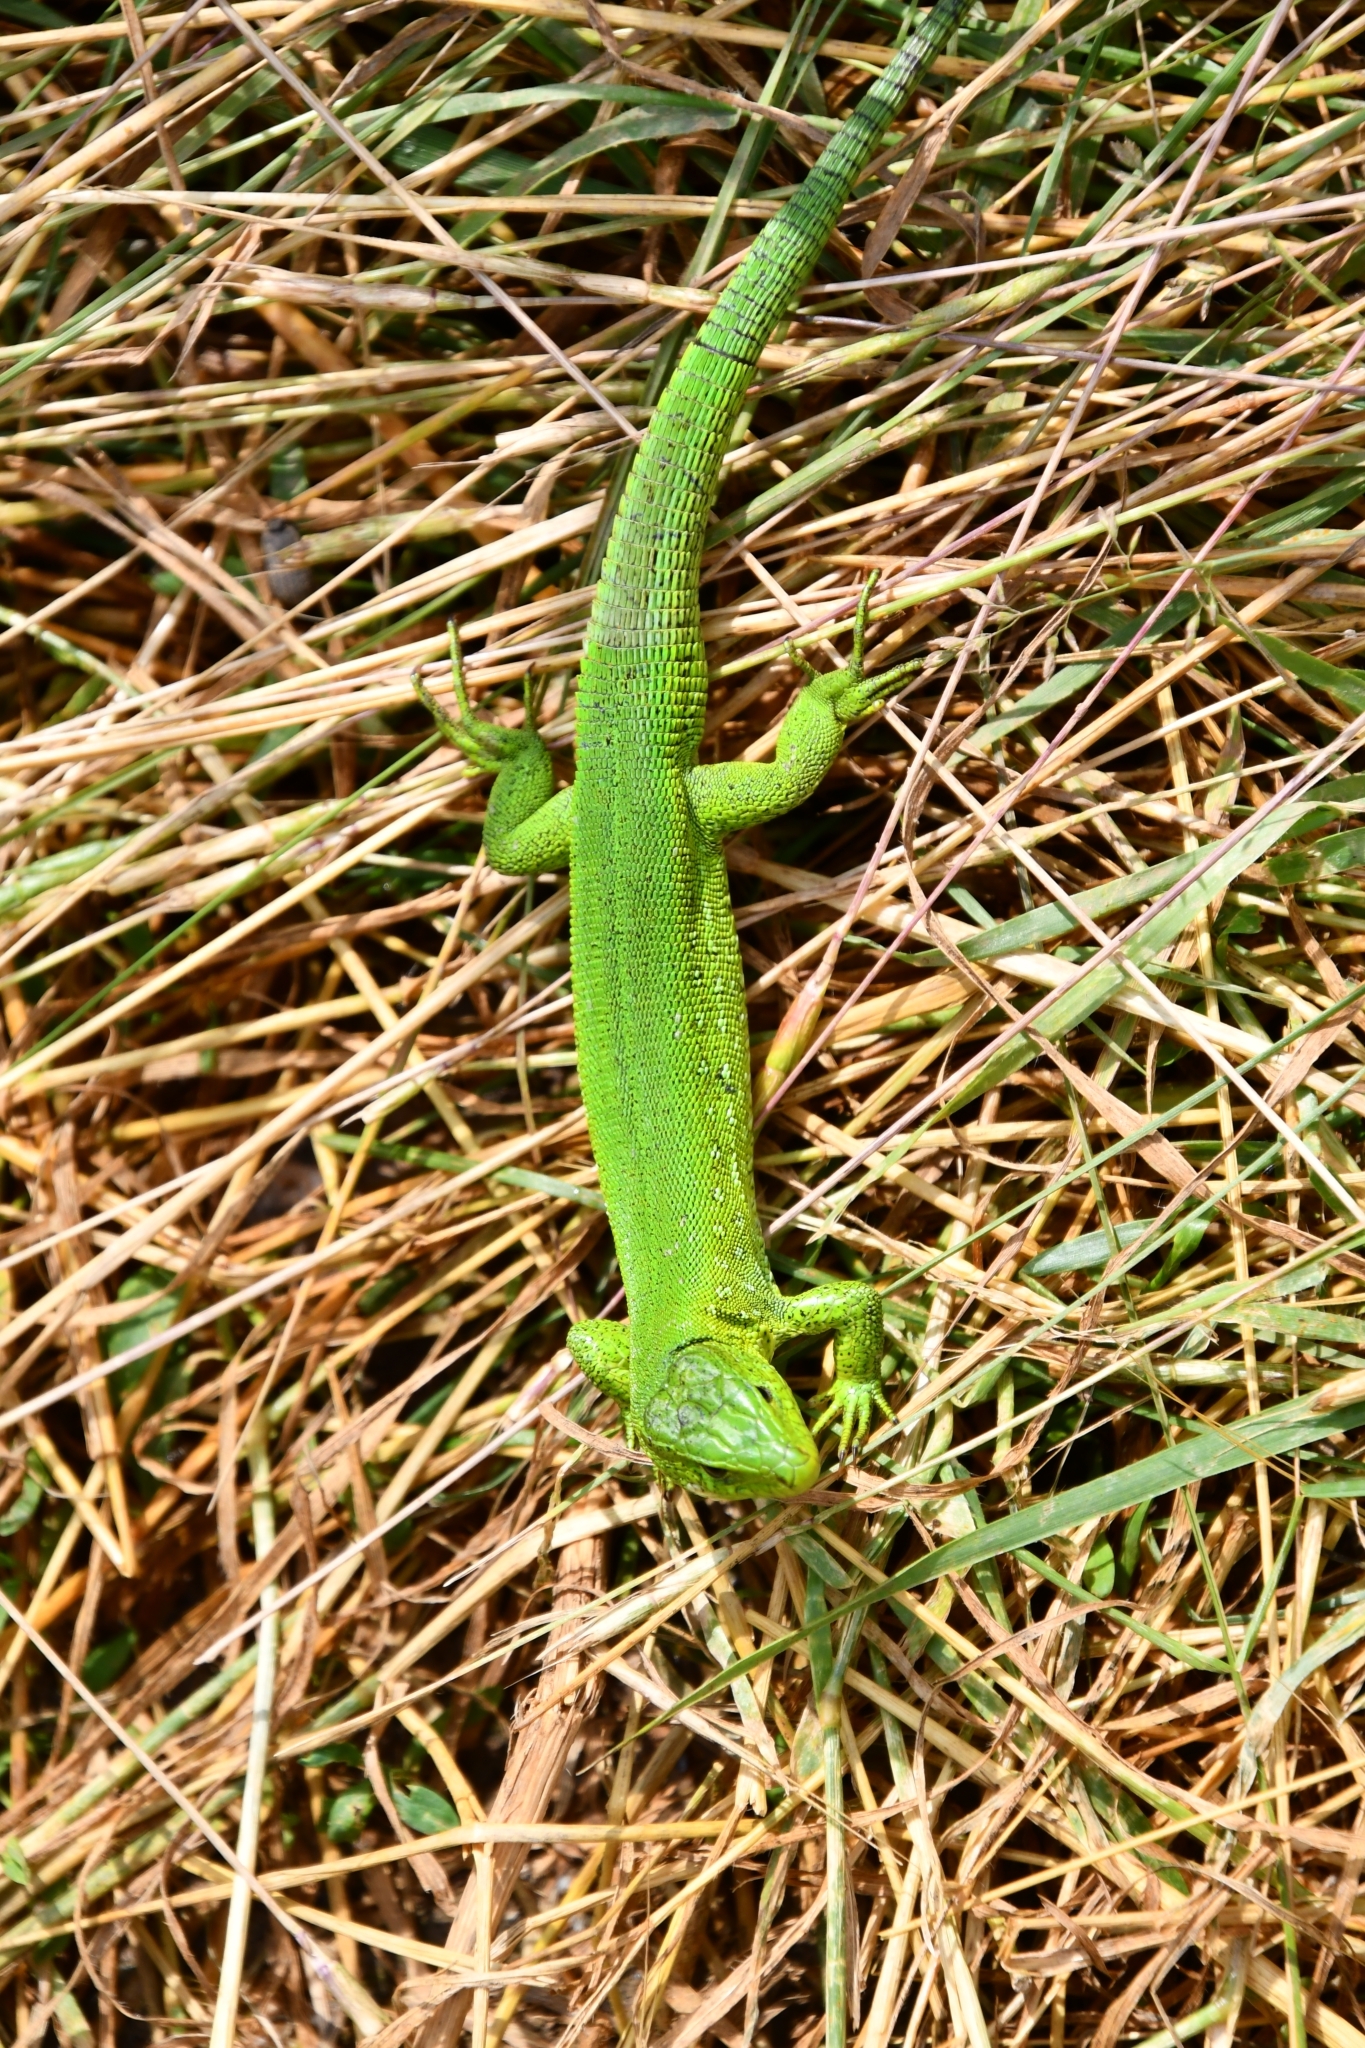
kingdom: Animalia
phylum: Chordata
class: Squamata
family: Lacertidae
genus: Lacerta
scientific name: Lacerta agilis
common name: Sand lizard
